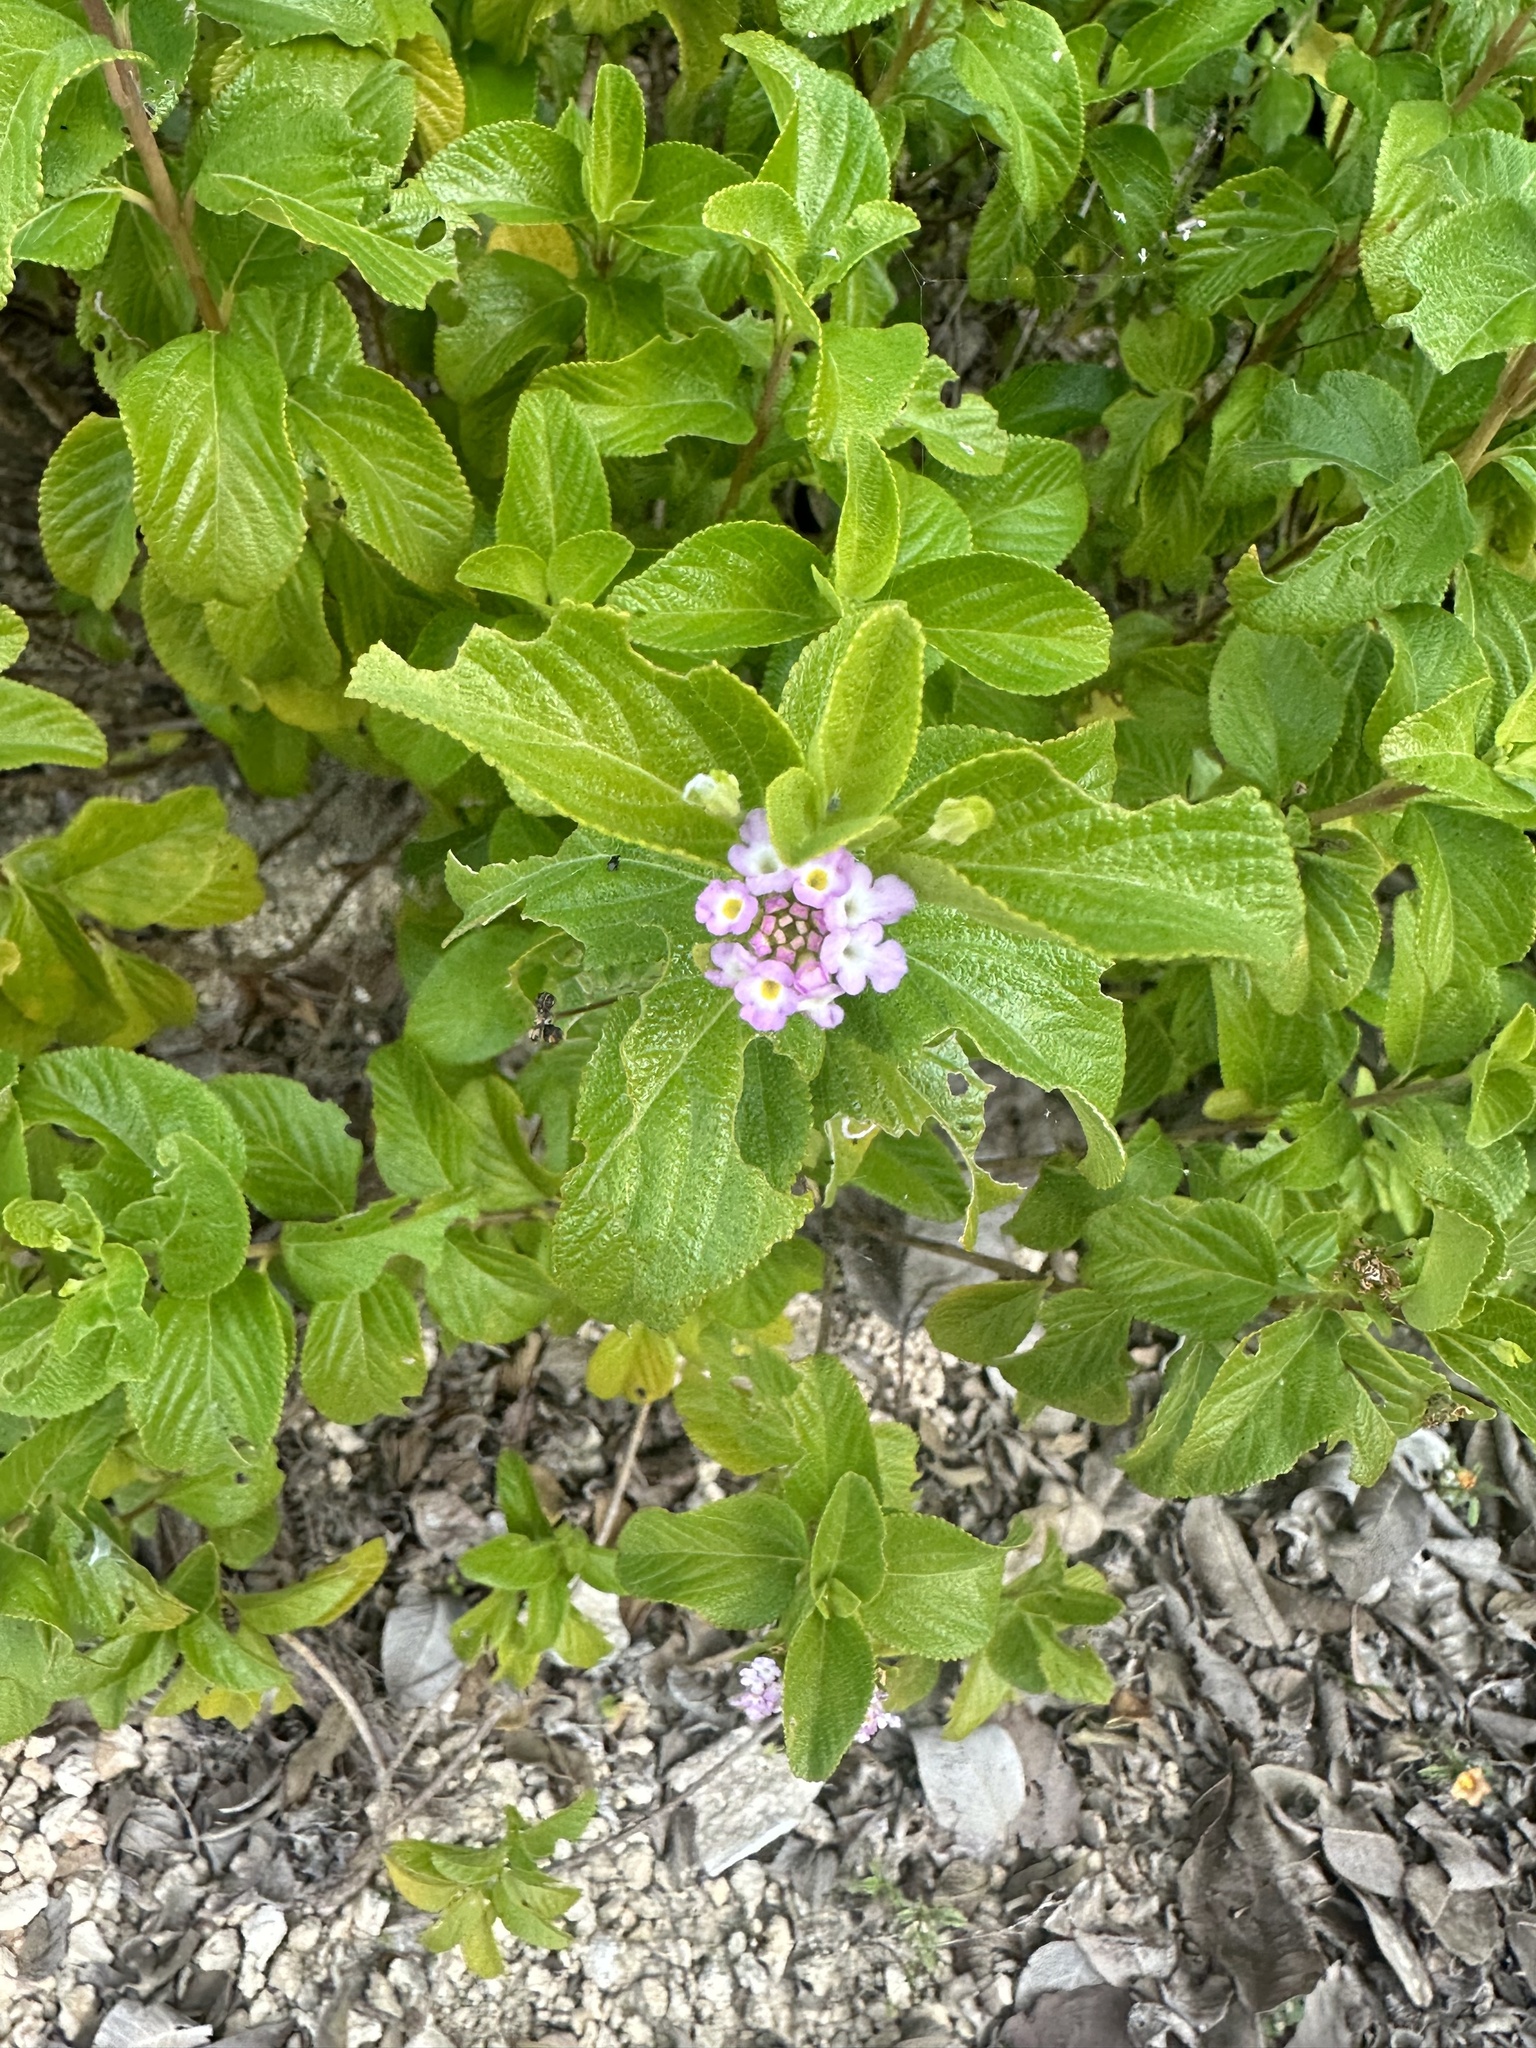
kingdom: Plantae
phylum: Tracheophyta
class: Magnoliopsida
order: Lamiales
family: Verbenaceae
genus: Lantana
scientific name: Lantana involucrata
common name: Black sage
